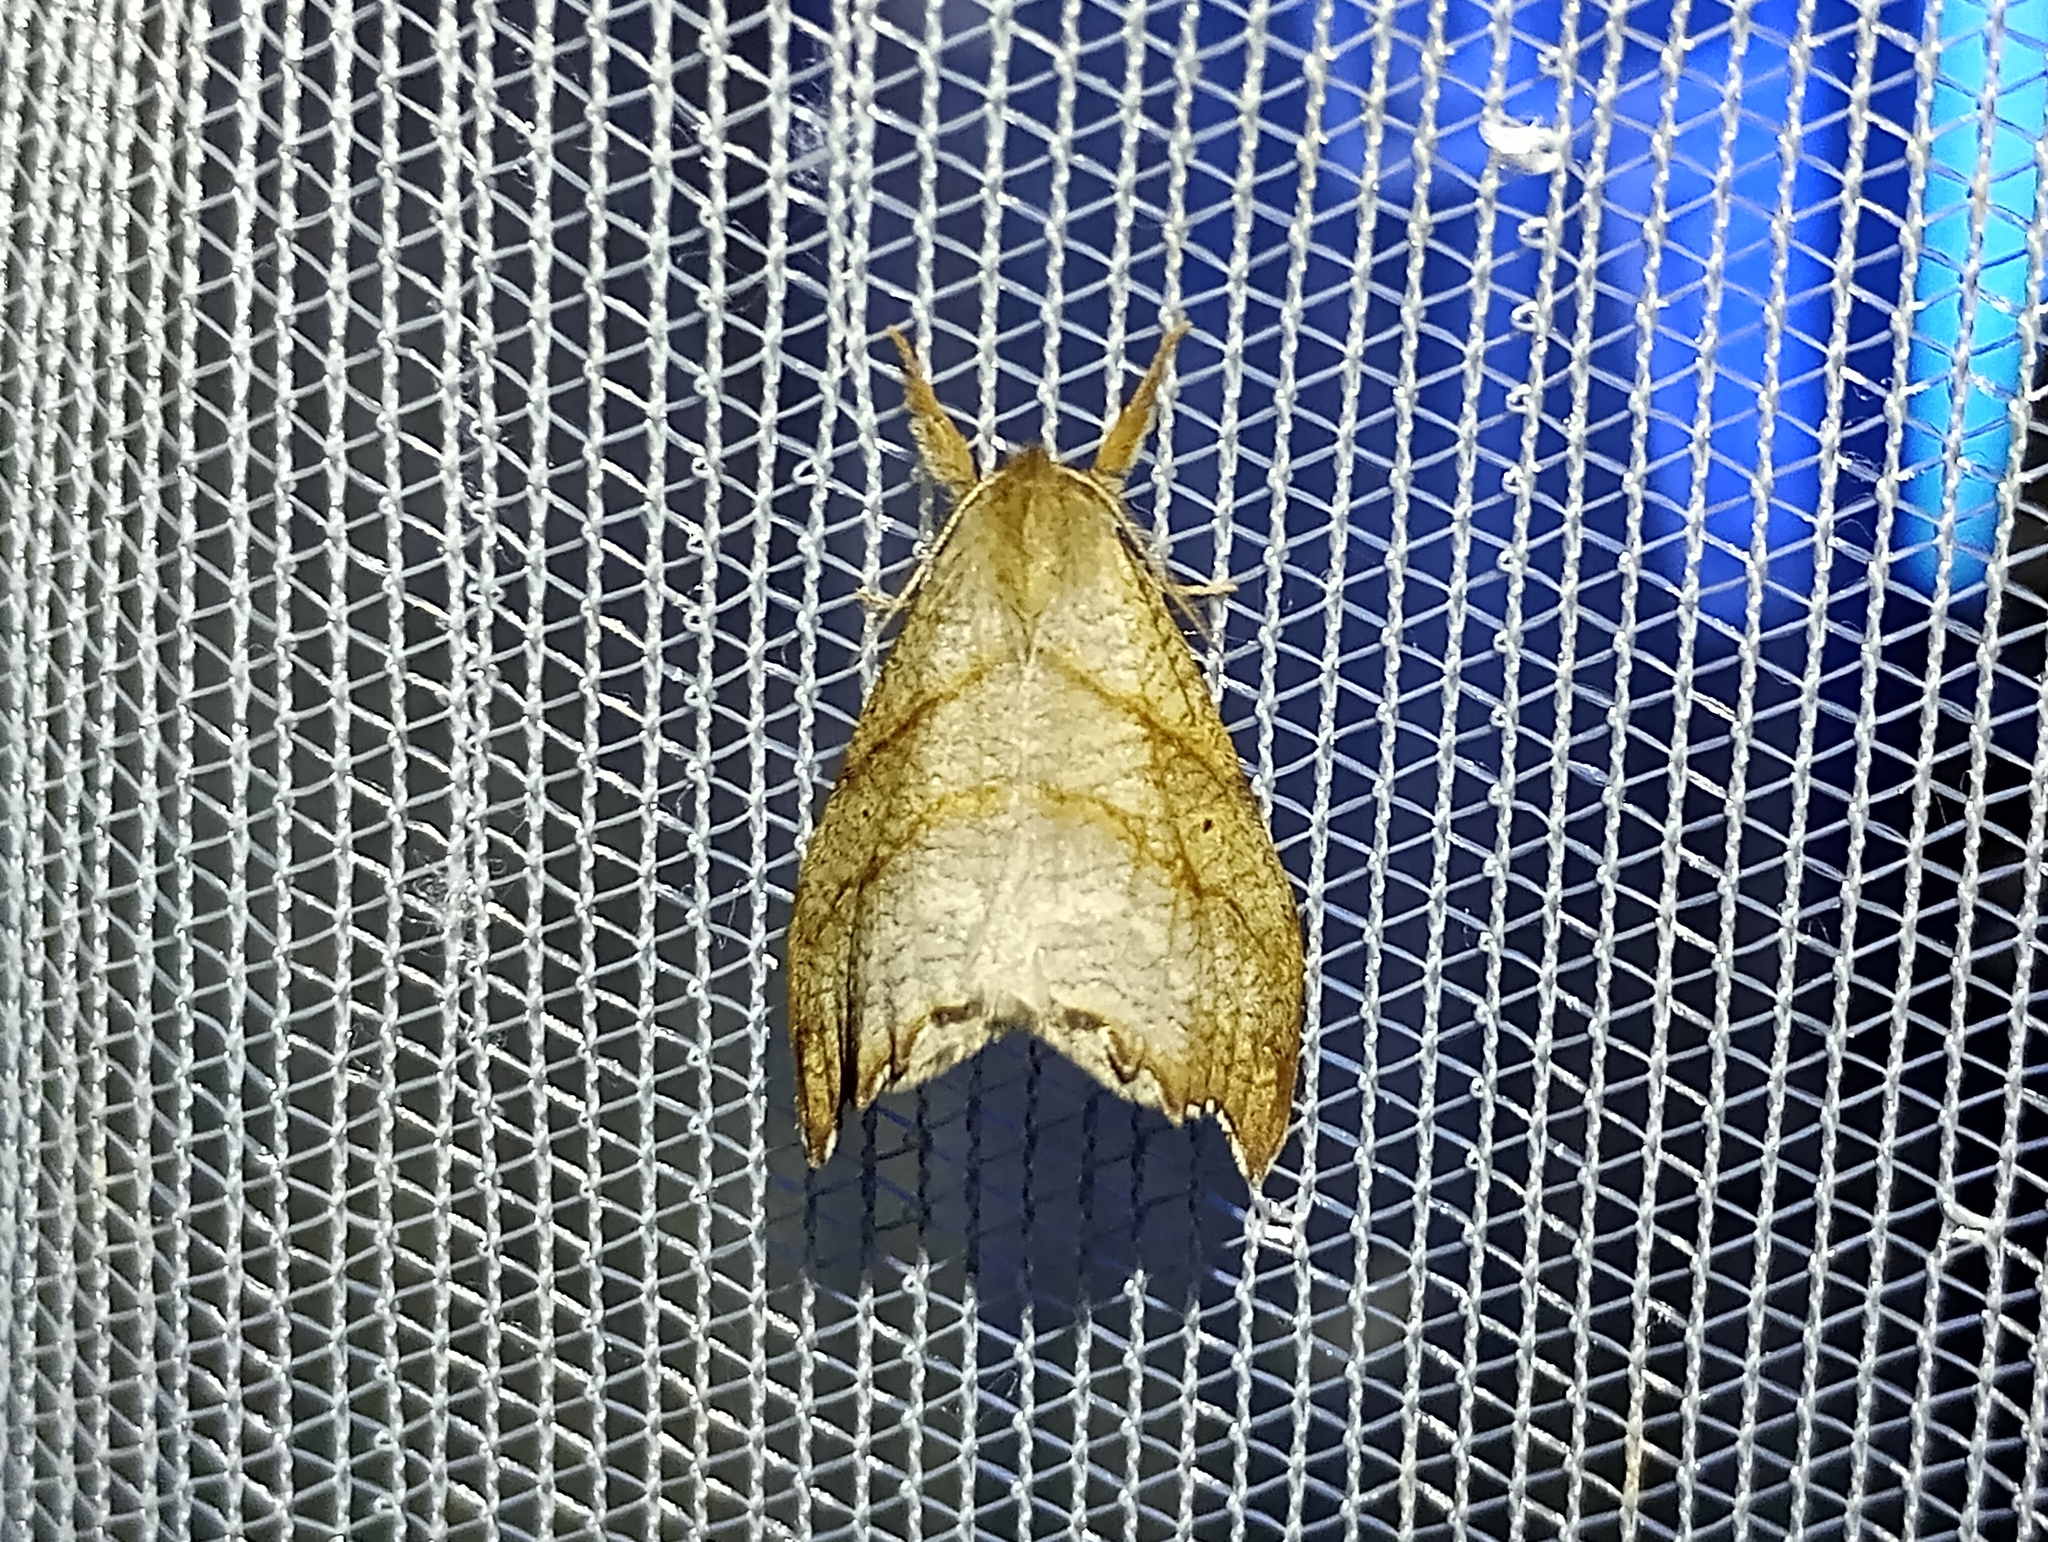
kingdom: Animalia
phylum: Arthropoda
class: Insecta
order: Lepidoptera
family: Drepanidae
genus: Falcaria
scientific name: Falcaria lacertinaria
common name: Scalloped hook-tip
